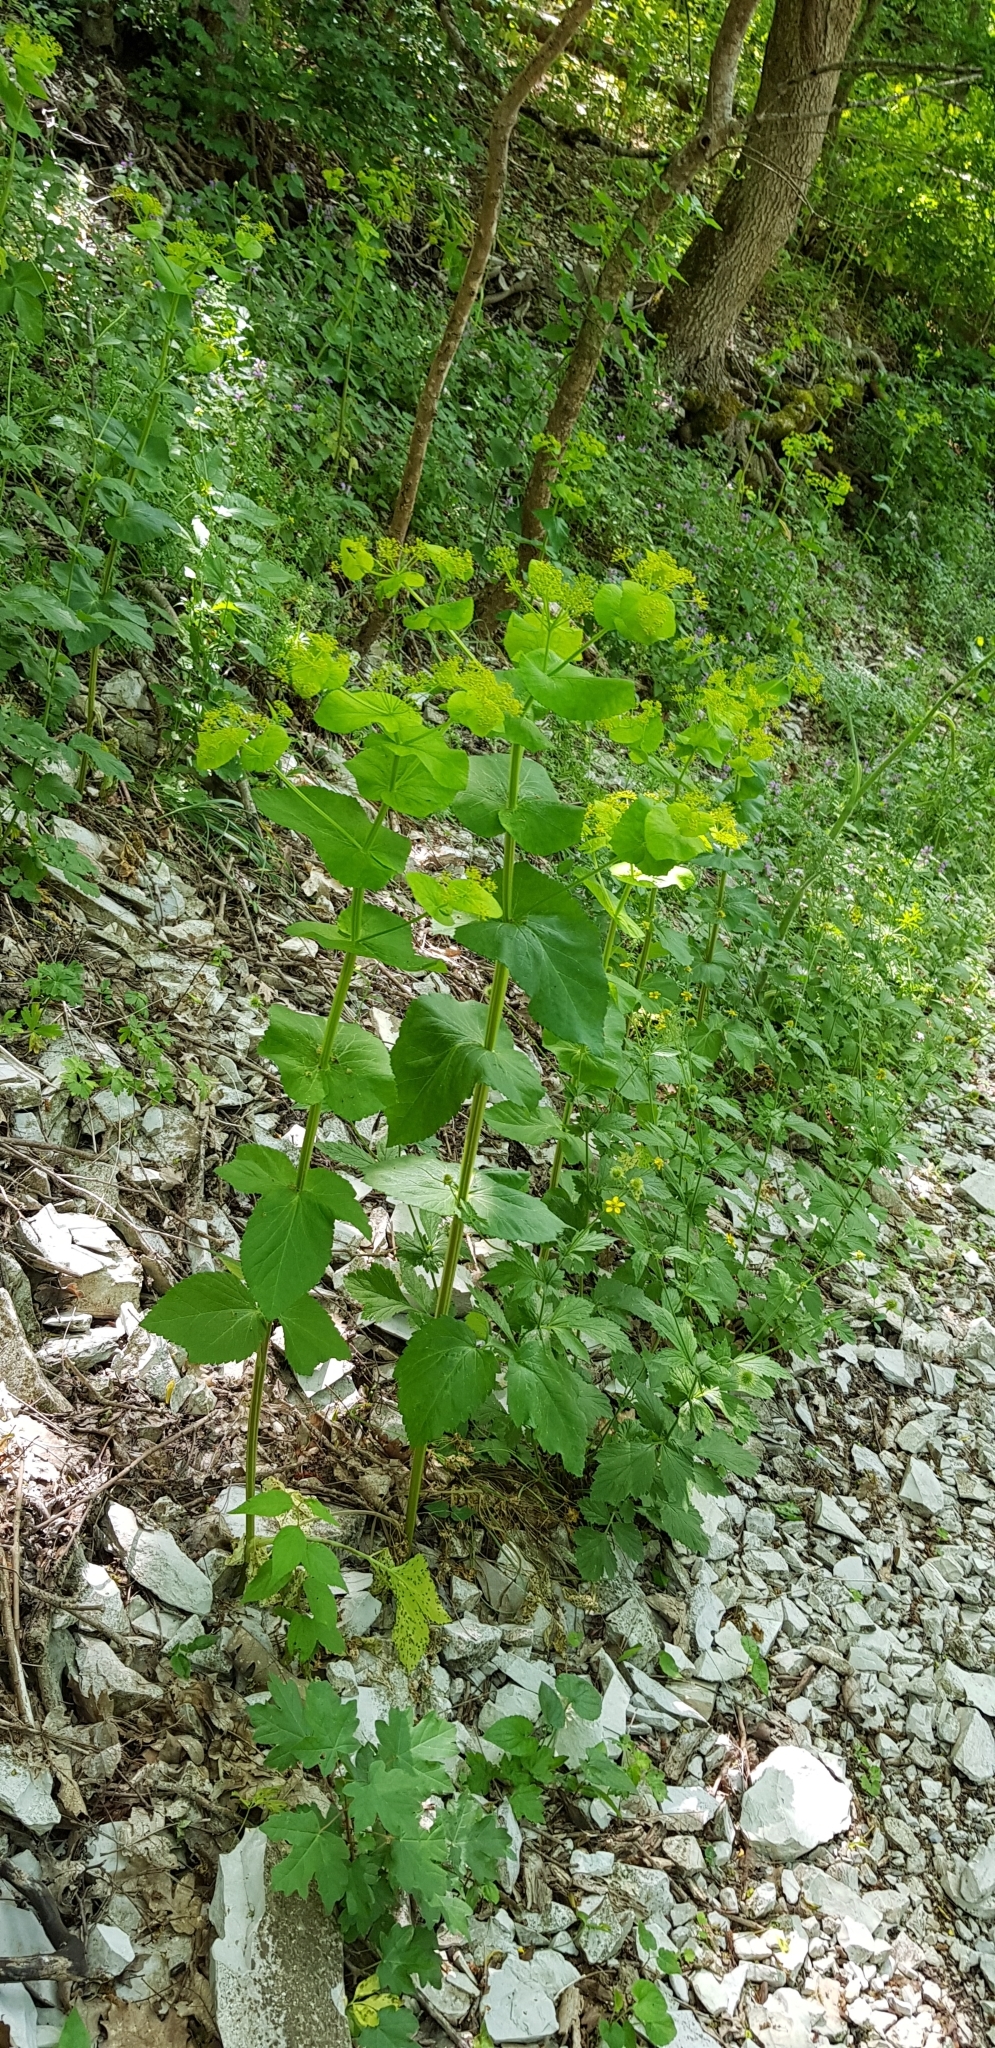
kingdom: Plantae
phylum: Tracheophyta
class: Magnoliopsida
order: Apiales
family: Apiaceae
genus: Smyrnium
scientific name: Smyrnium perfoliatum
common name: Perfoliate alexanders
